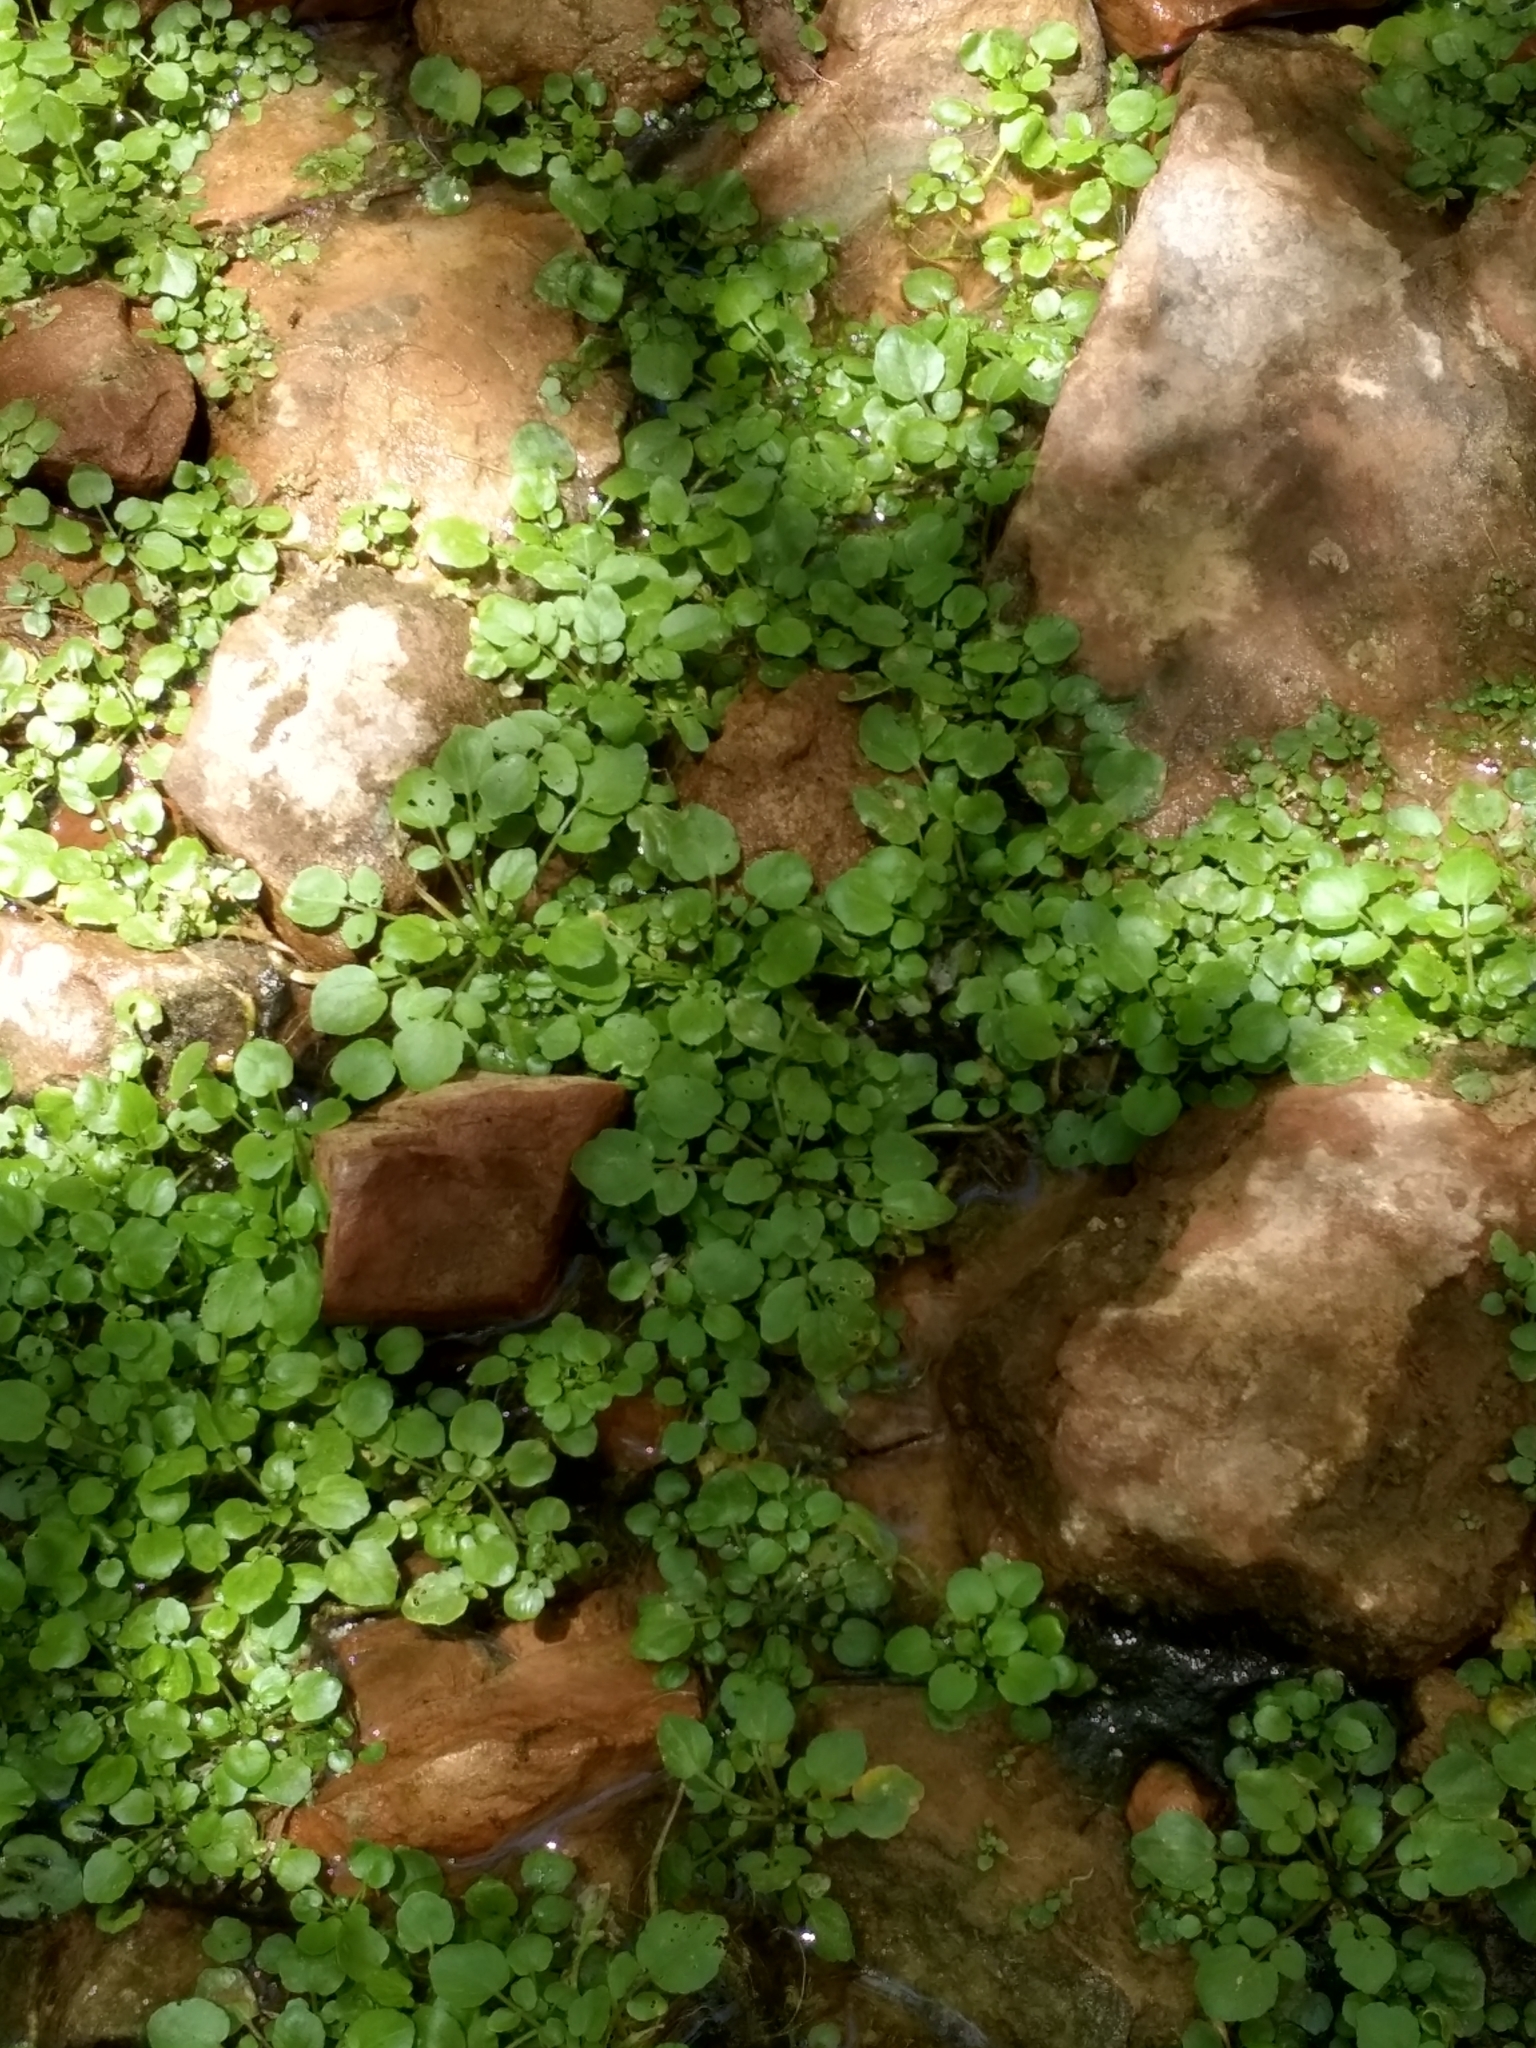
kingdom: Plantae
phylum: Tracheophyta
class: Magnoliopsida
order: Brassicales
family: Brassicaceae
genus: Nasturtium
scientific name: Nasturtium officinale
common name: Watercress
